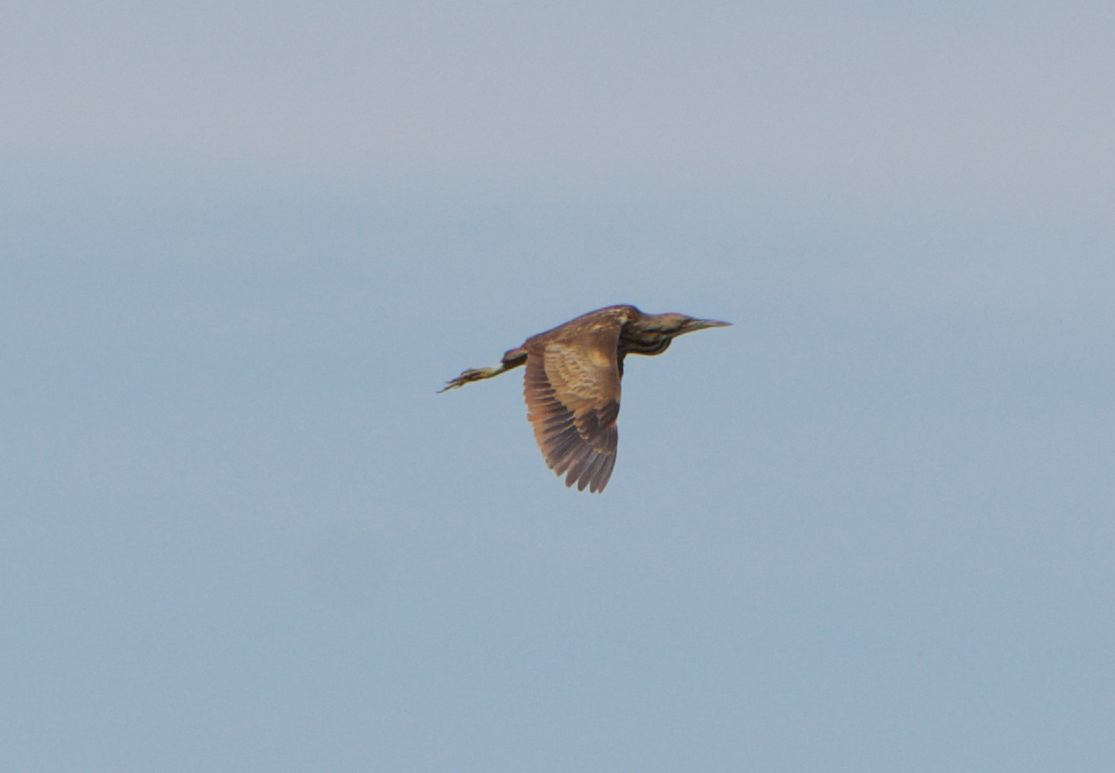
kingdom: Animalia
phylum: Chordata
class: Aves
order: Pelecaniformes
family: Ardeidae
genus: Botaurus
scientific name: Botaurus lentiginosus
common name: American bittern
